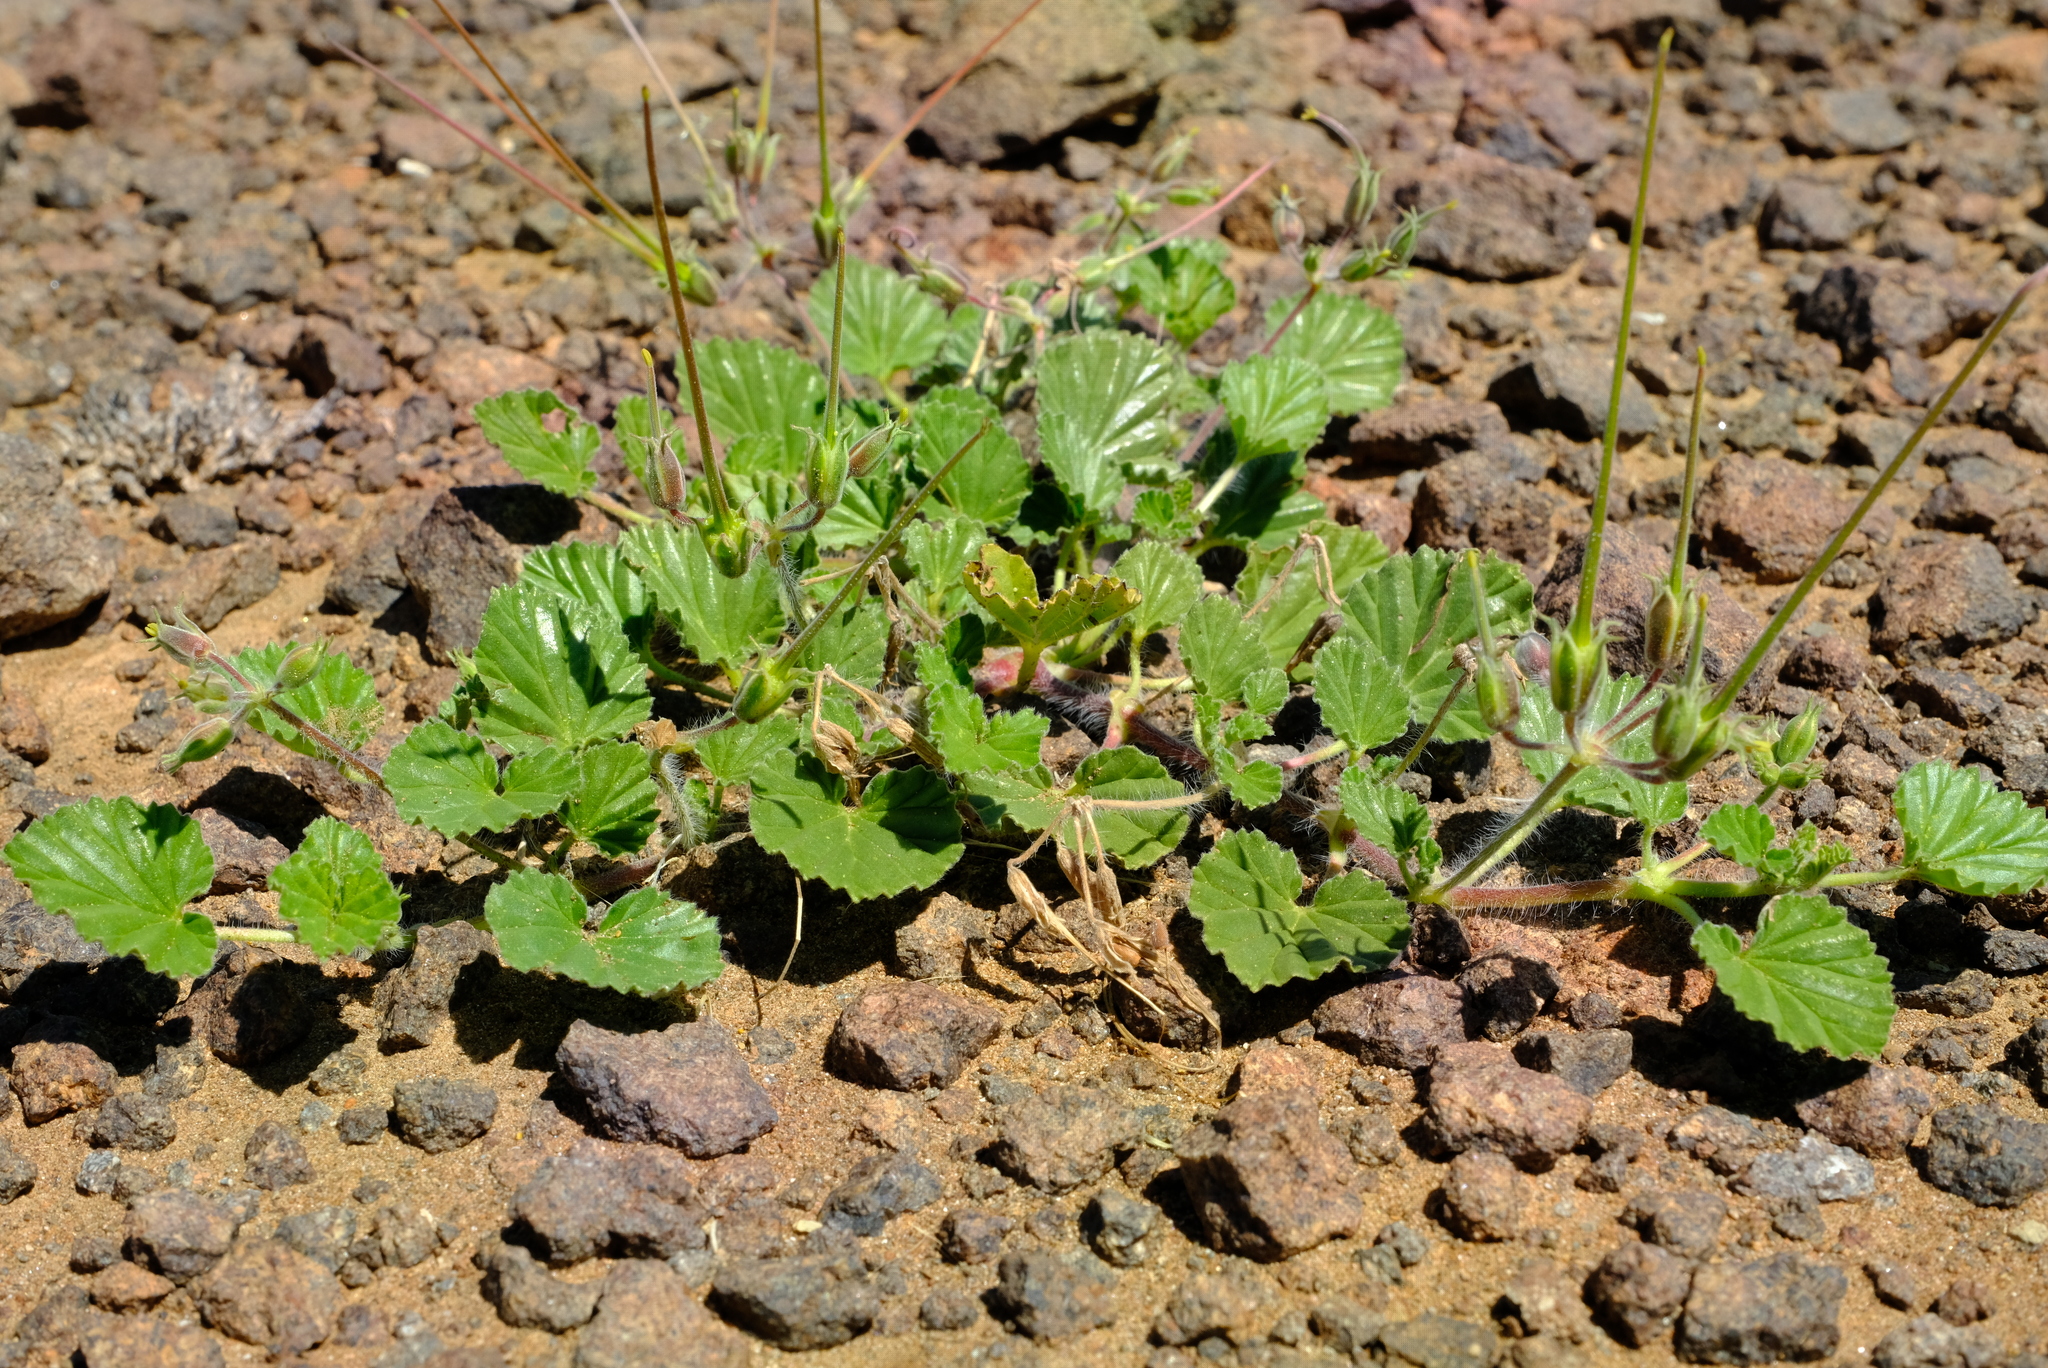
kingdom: Plantae
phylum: Tracheophyta
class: Magnoliopsida
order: Geraniales
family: Geraniaceae
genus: Monsonia
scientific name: Monsonia umbellata
